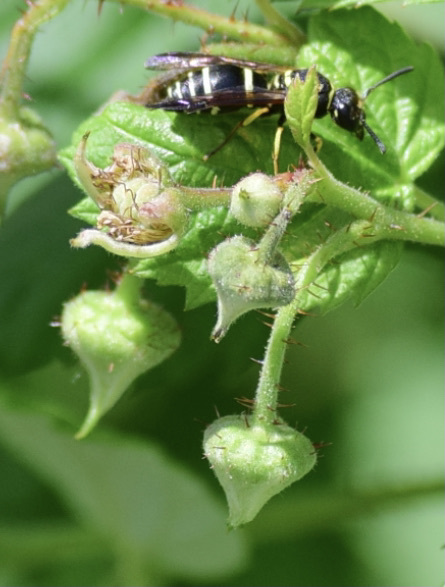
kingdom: Animalia
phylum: Arthropoda
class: Insecta
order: Hymenoptera
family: Vespidae
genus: Ancistrocerus
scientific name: Ancistrocerus catskill
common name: Vespid wasp
